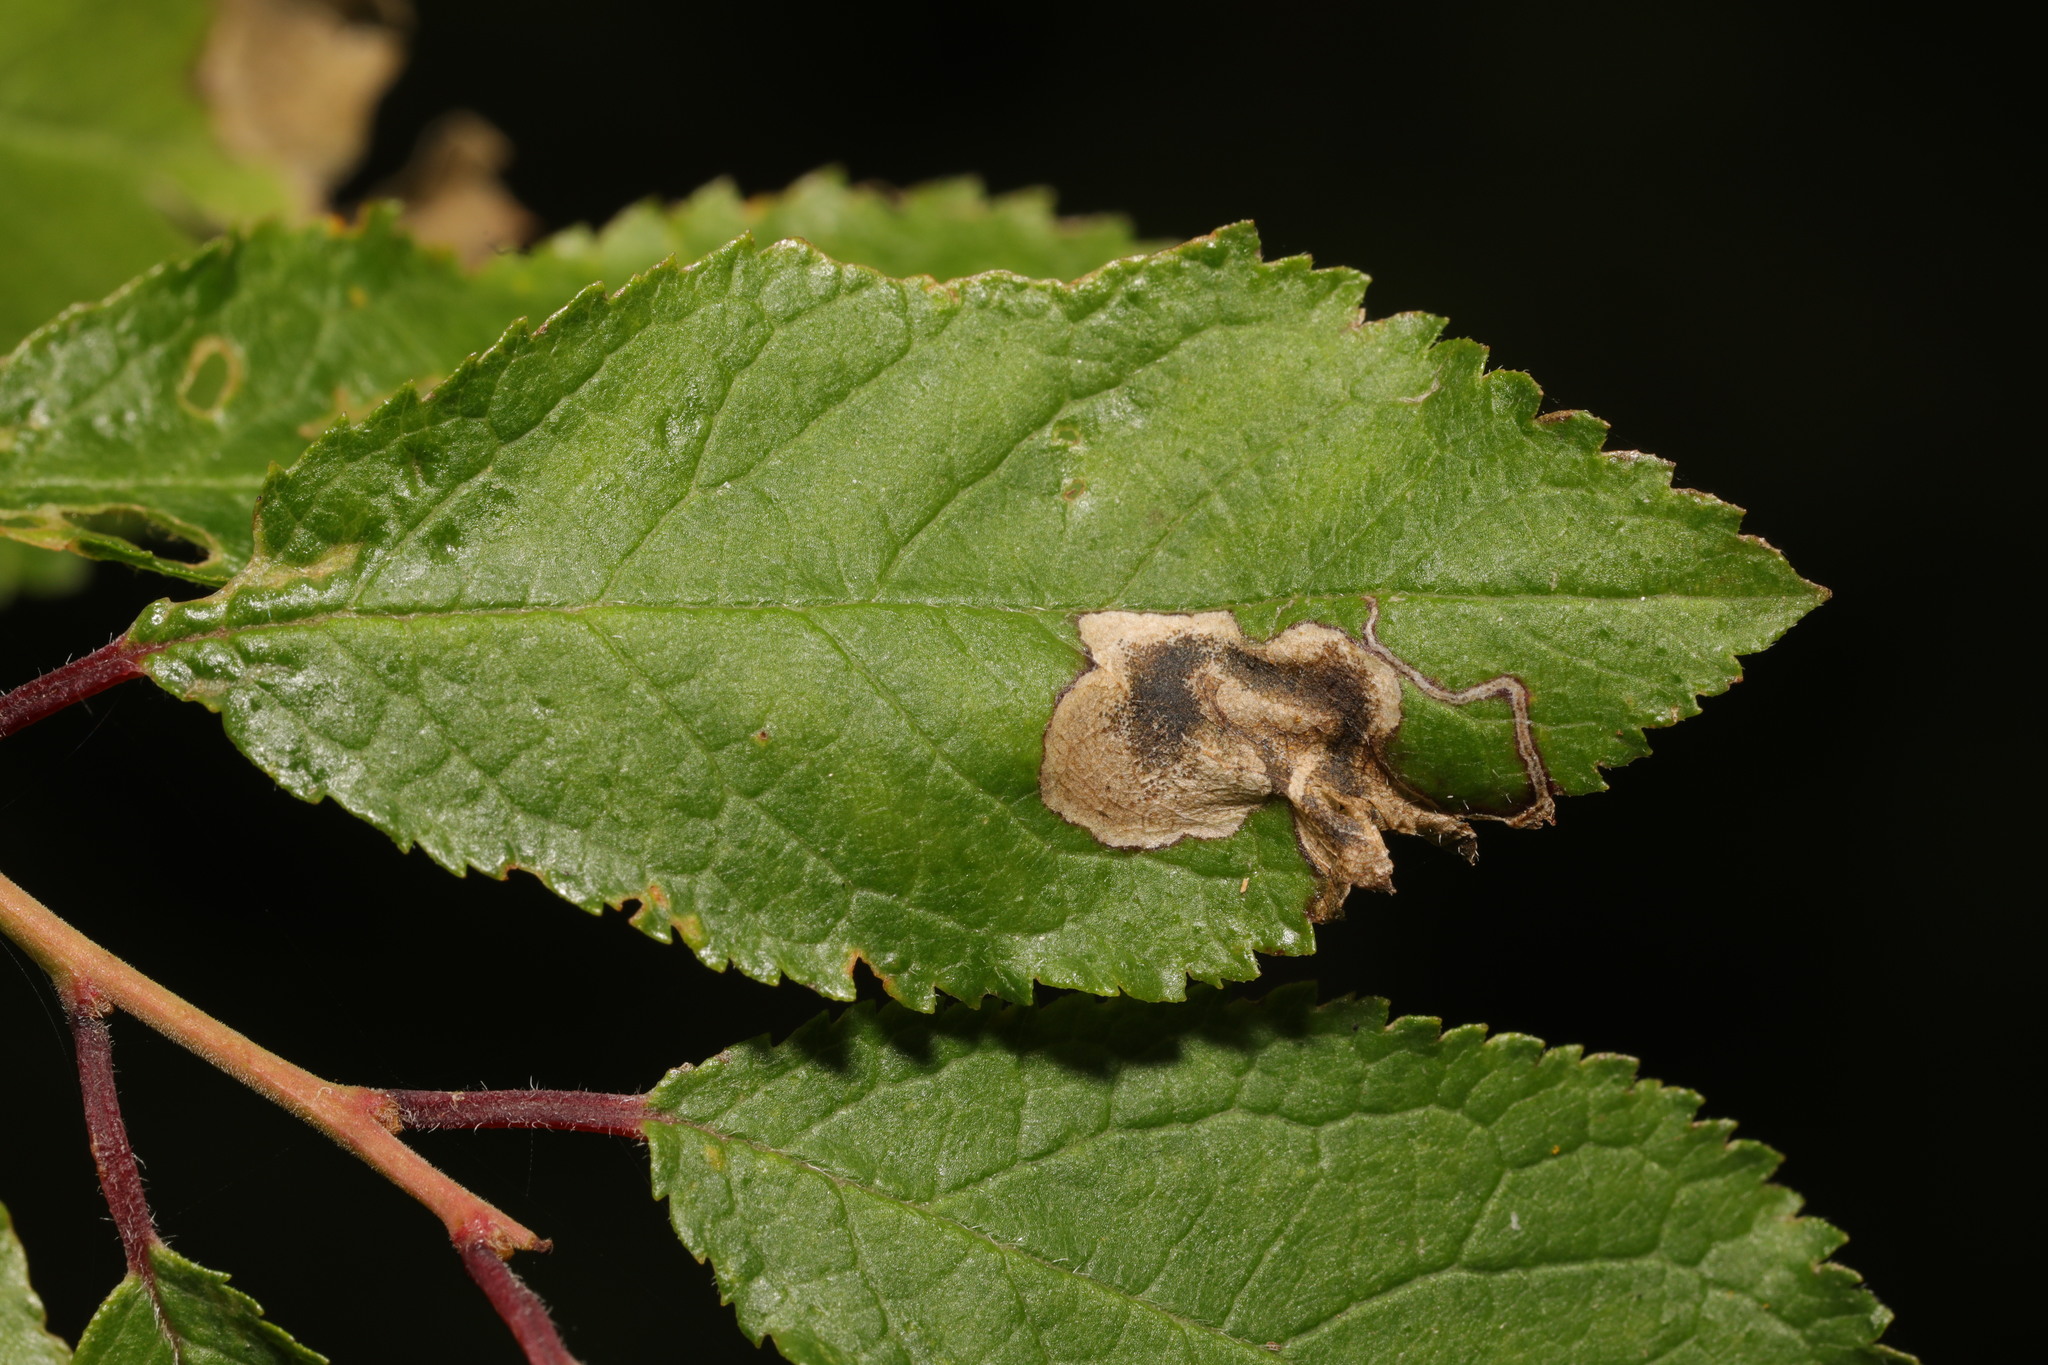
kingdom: Animalia
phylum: Arthropoda
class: Insecta
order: Lepidoptera
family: Nepticulidae
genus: Stigmella
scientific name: Stigmella plagicolella
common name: Scrubland pigmy
